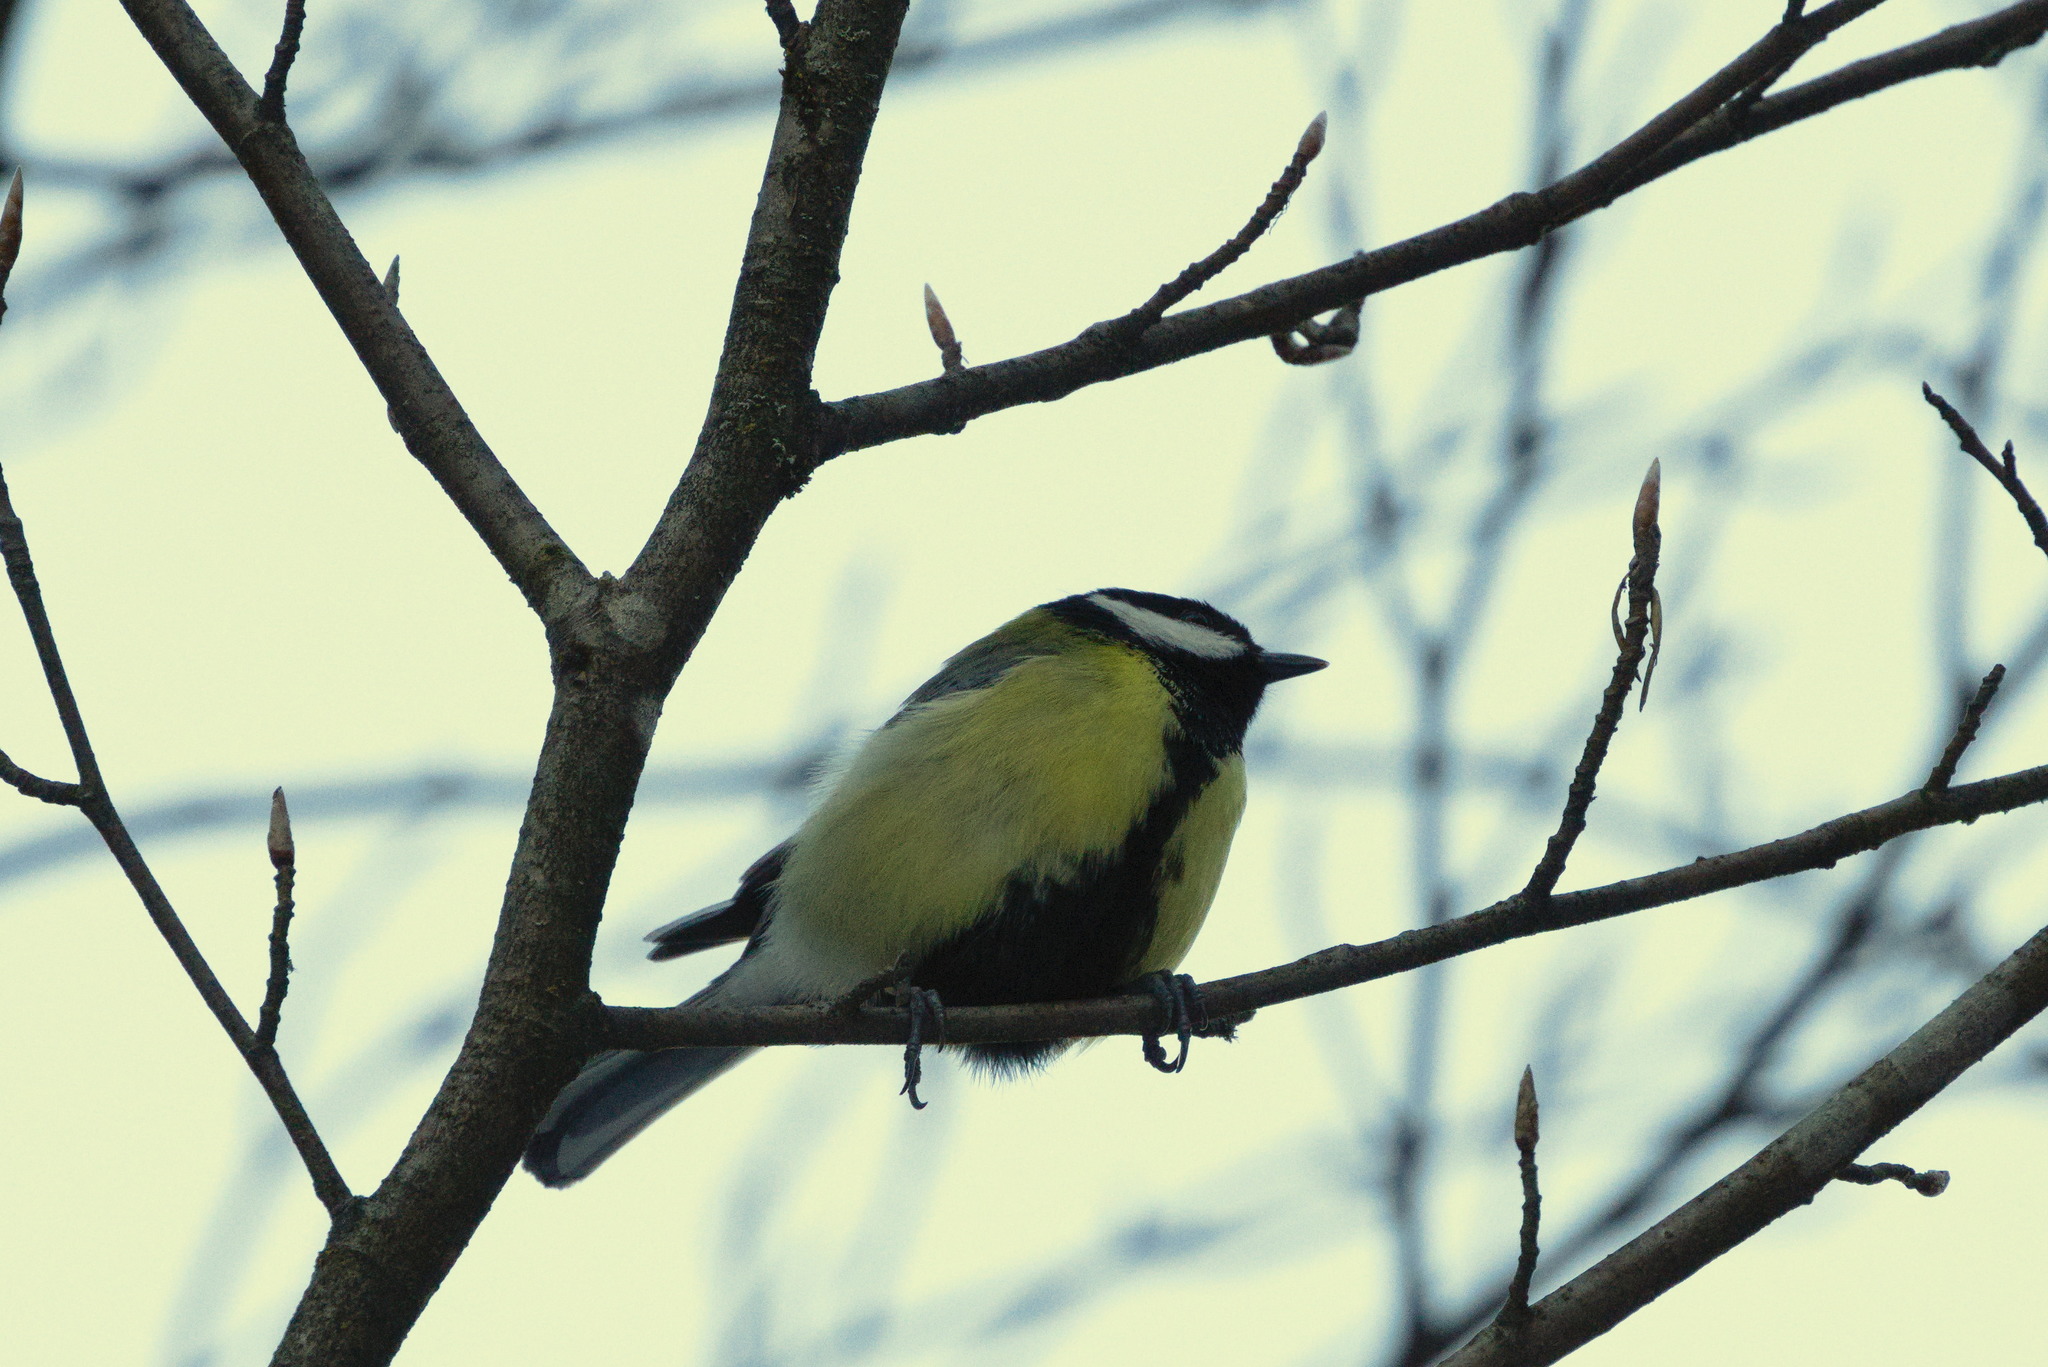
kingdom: Animalia
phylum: Chordata
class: Aves
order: Passeriformes
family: Paridae
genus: Parus
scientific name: Parus major
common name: Great tit
